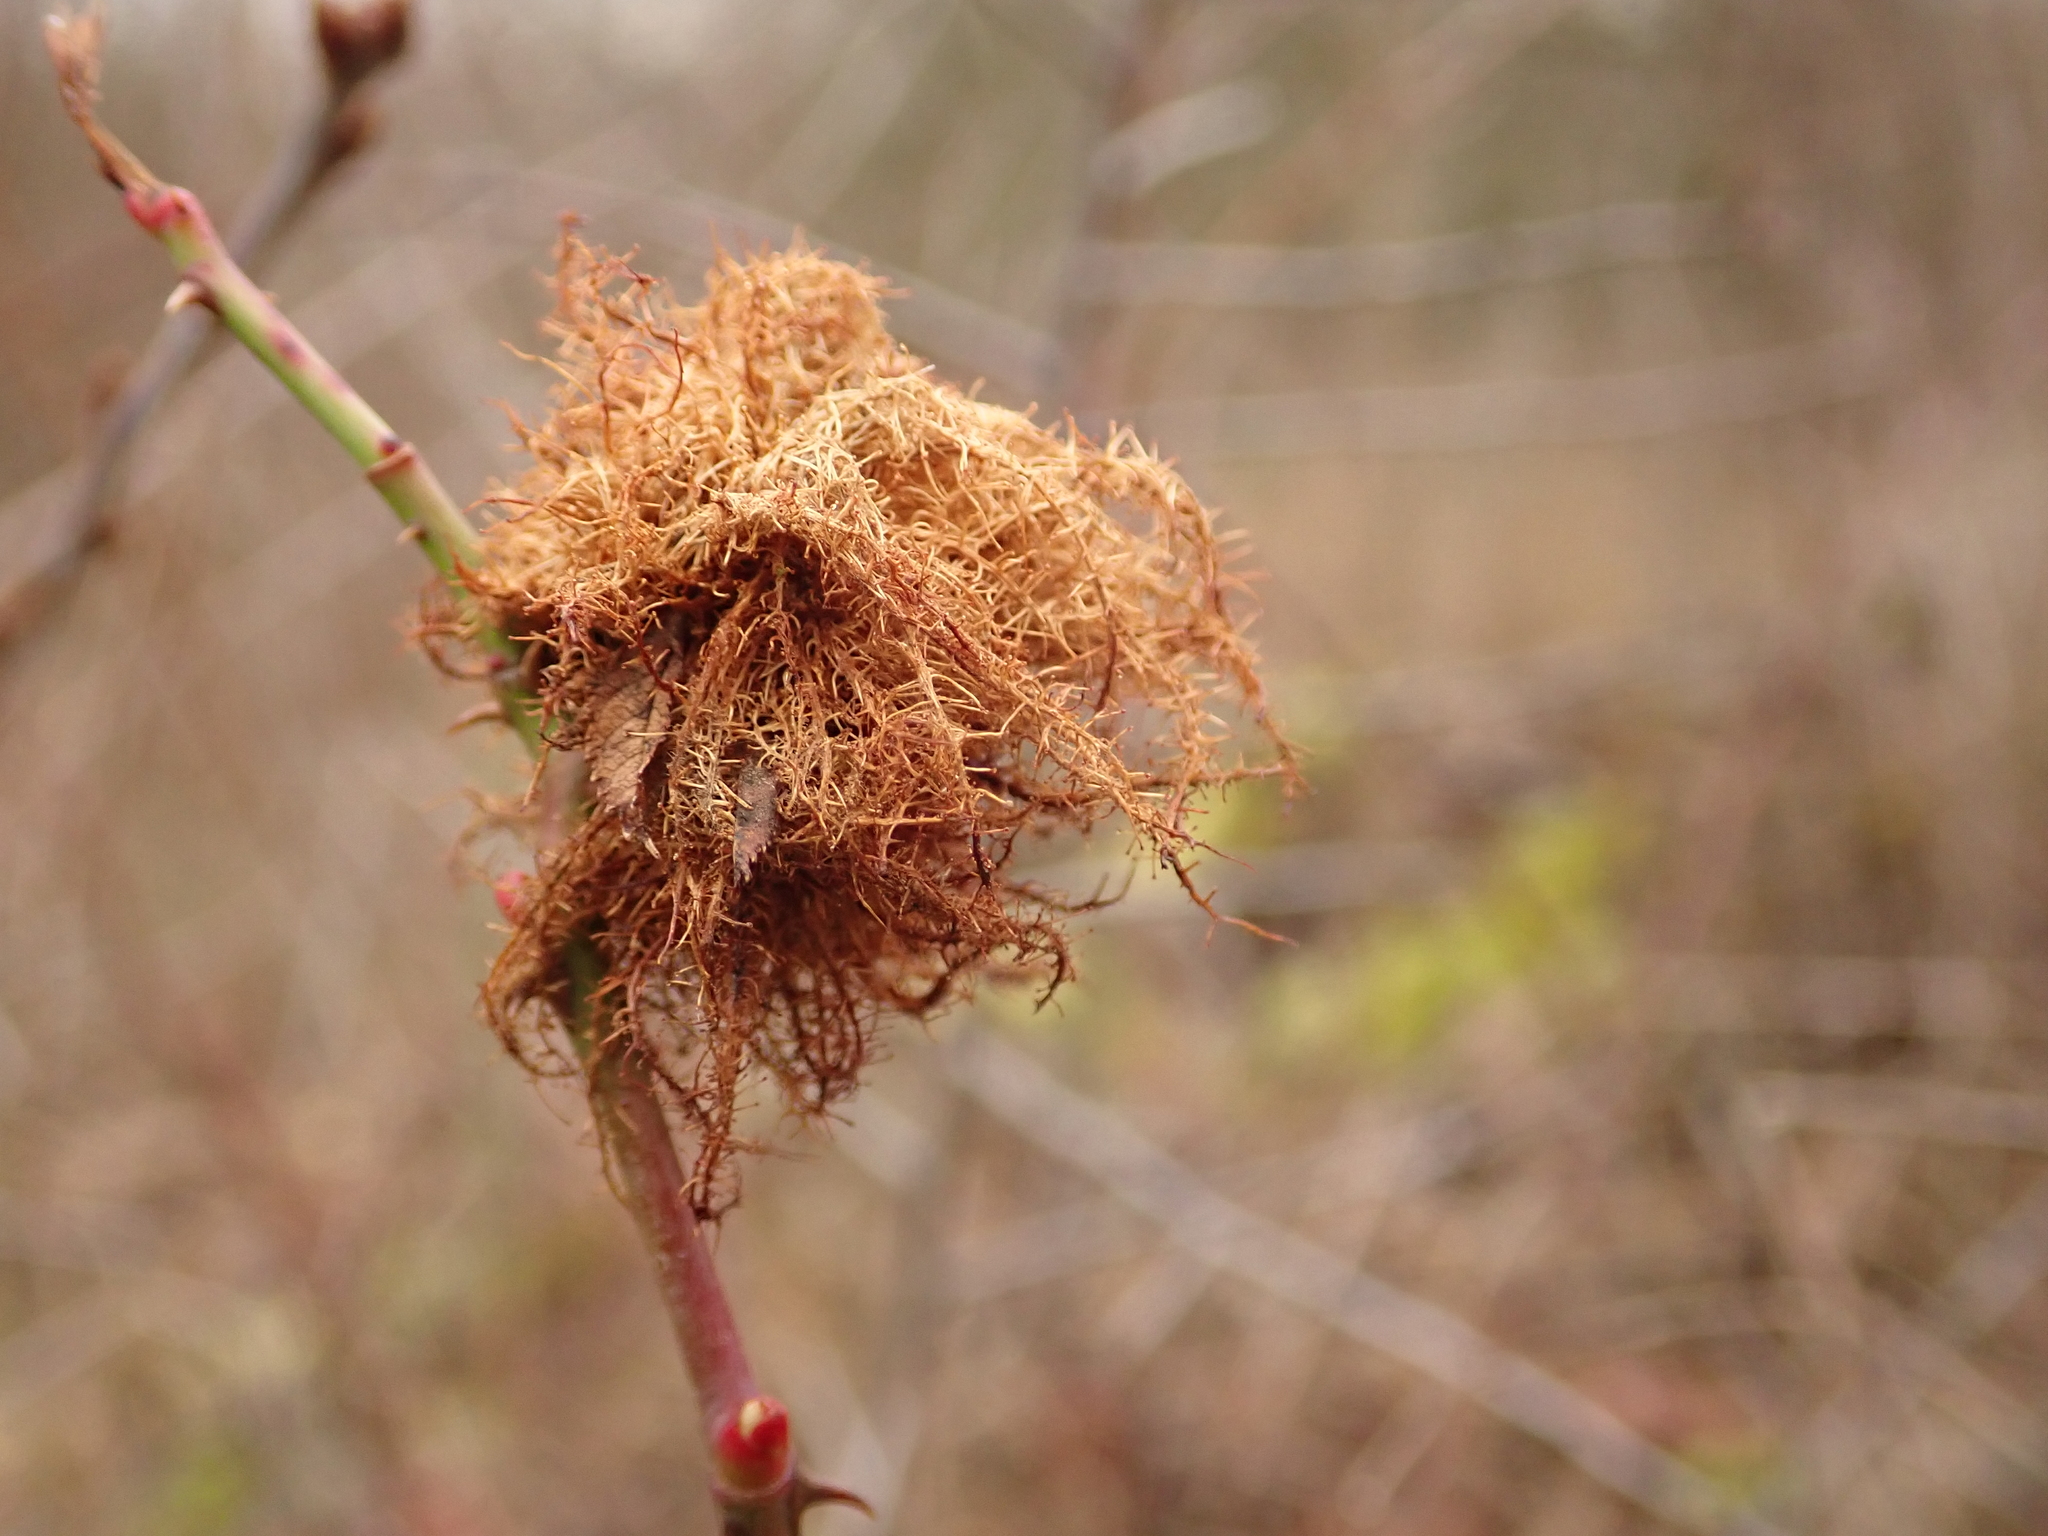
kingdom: Animalia
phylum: Arthropoda
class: Insecta
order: Hymenoptera
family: Cynipidae
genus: Diplolepis
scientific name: Diplolepis rosae
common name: Bedeguar gall
